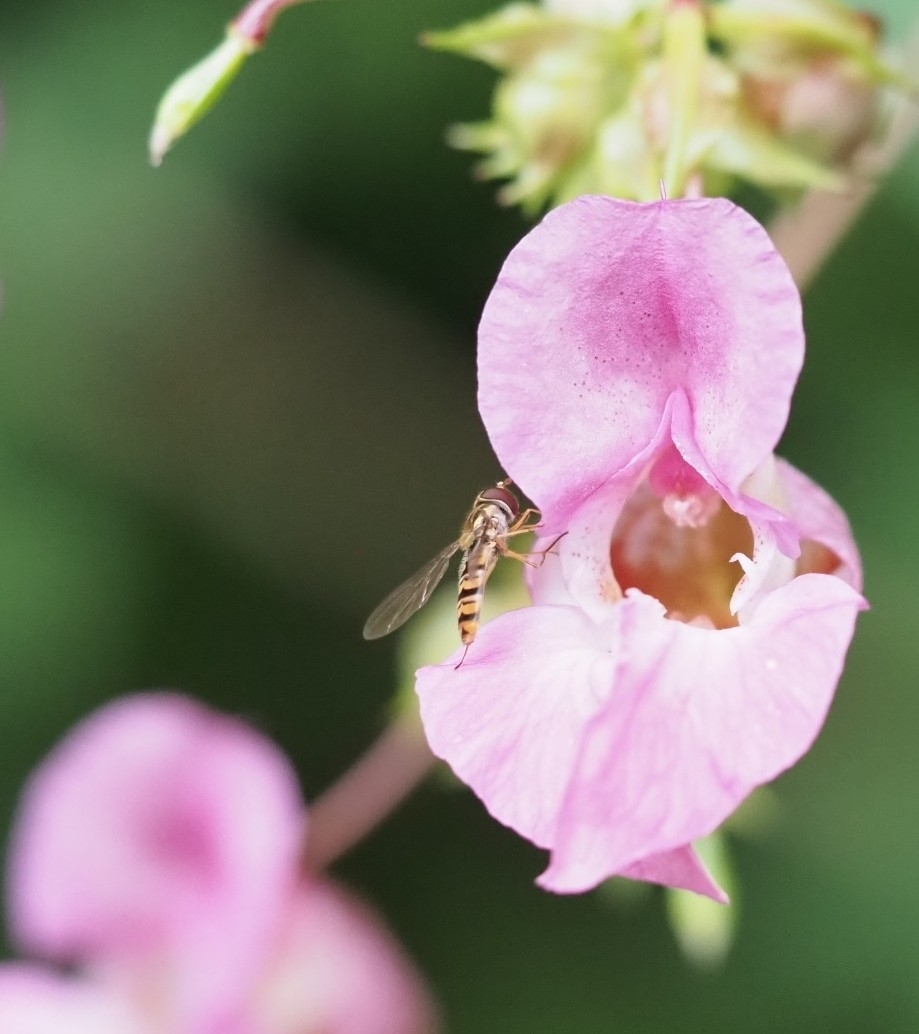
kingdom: Animalia
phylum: Arthropoda
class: Insecta
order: Diptera
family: Syrphidae
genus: Episyrphus
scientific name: Episyrphus balteatus
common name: Marmalade hoverfly
